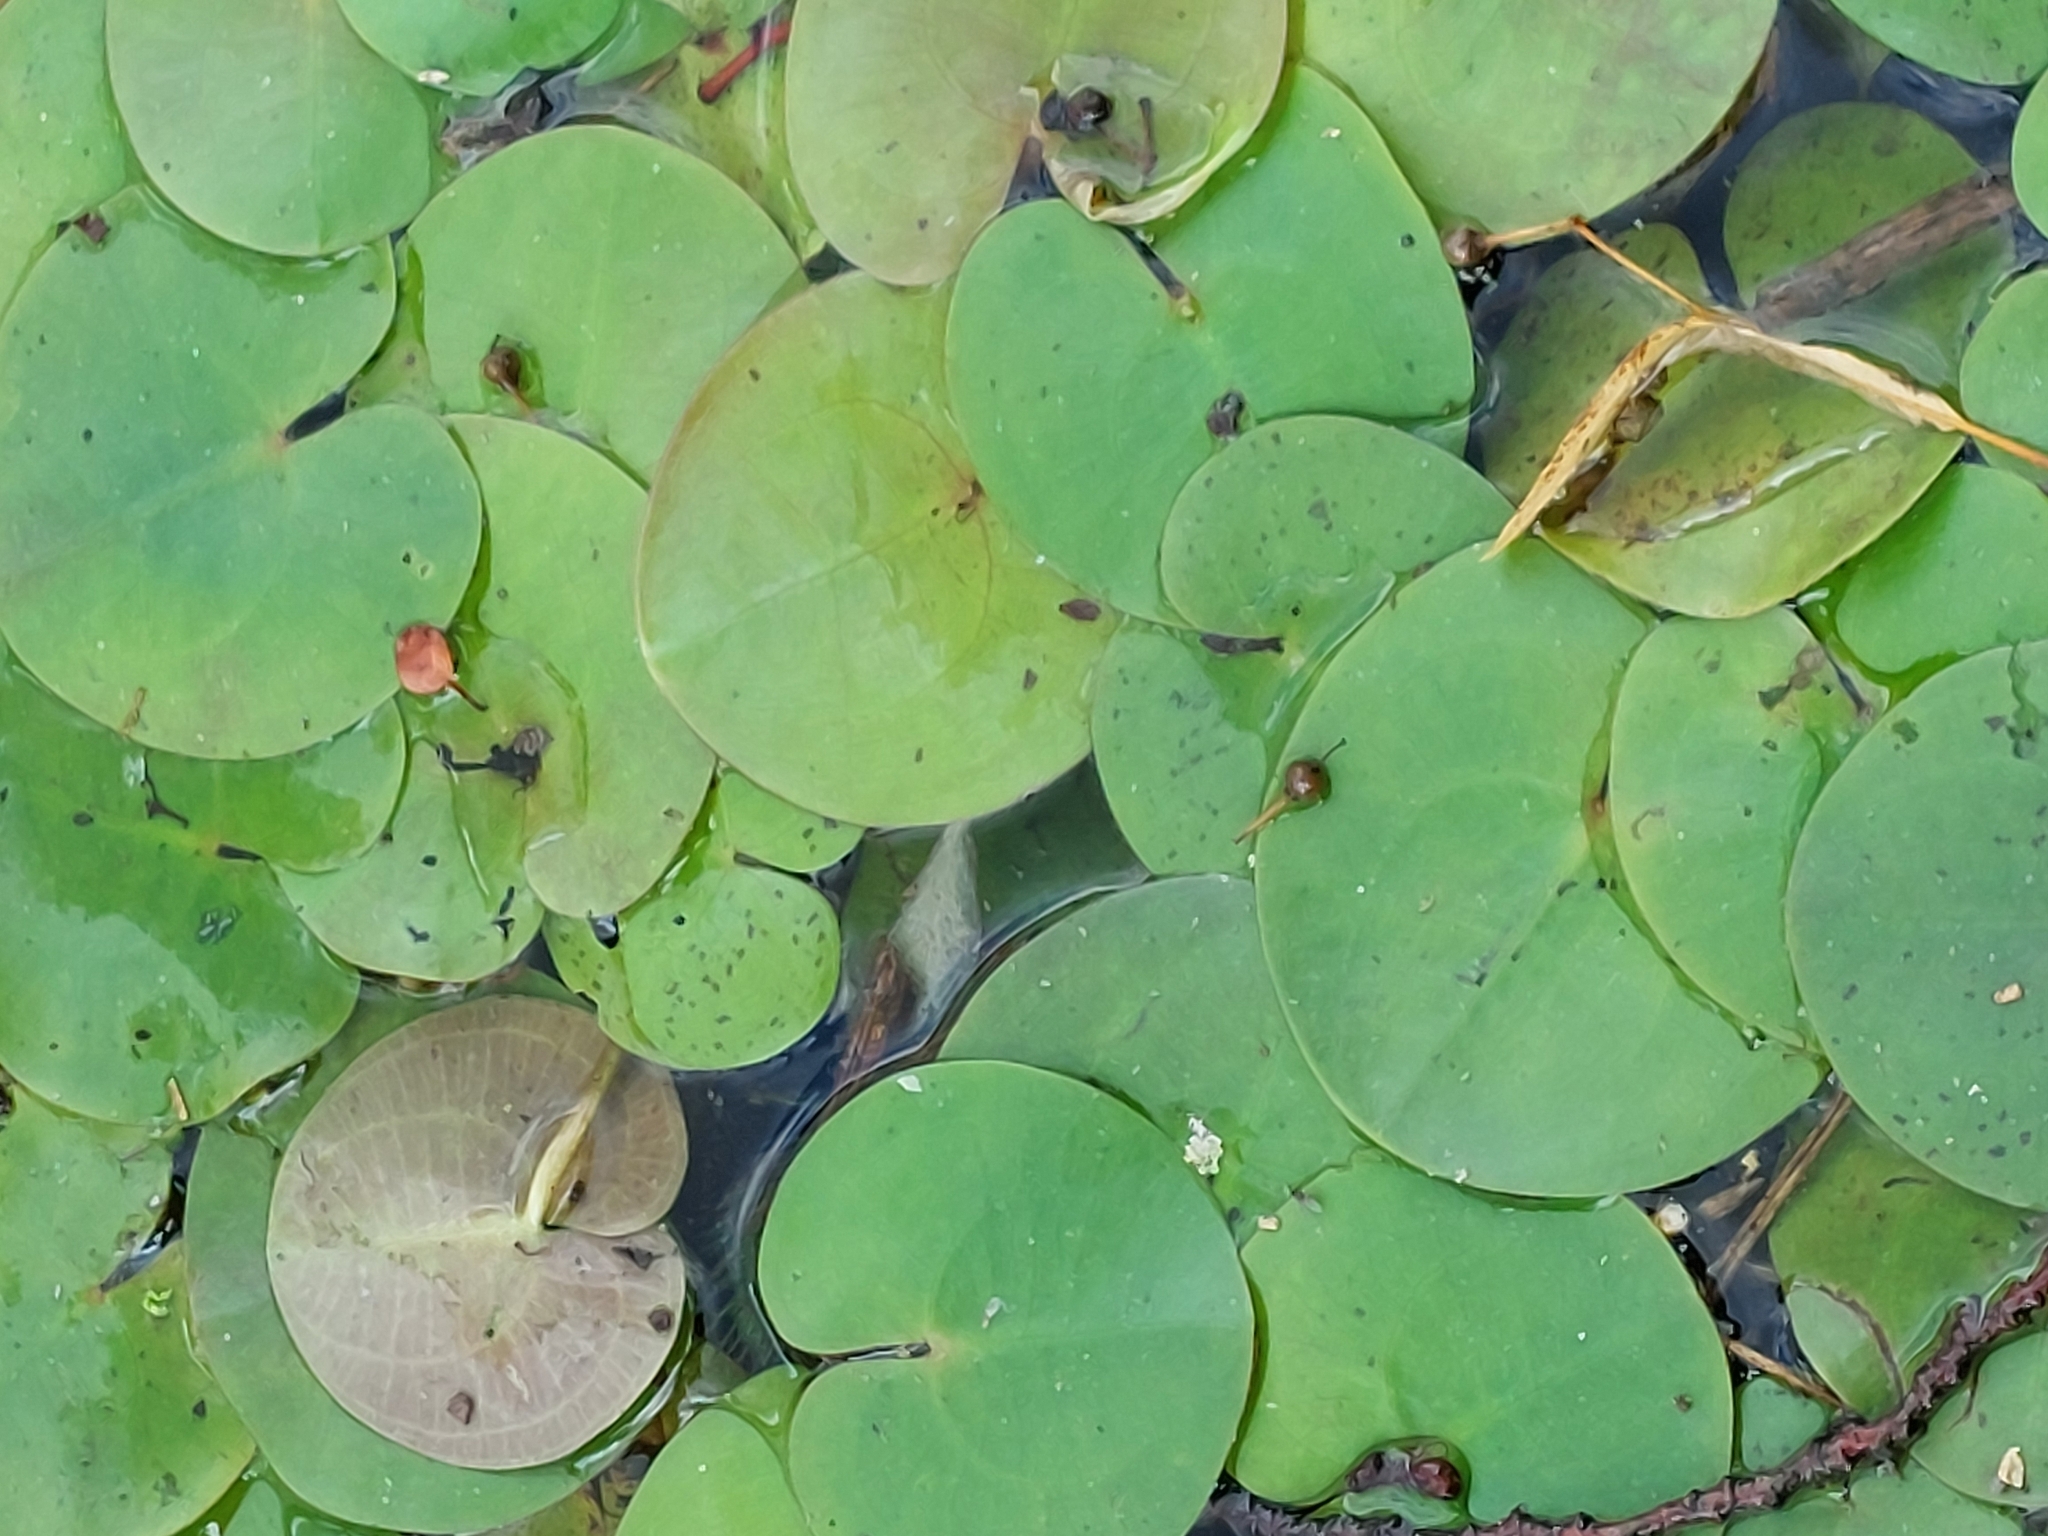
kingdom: Plantae
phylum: Tracheophyta
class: Liliopsida
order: Alismatales
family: Hydrocharitaceae
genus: Hydrocharis
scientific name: Hydrocharis morsus-ranae
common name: Frogbit
